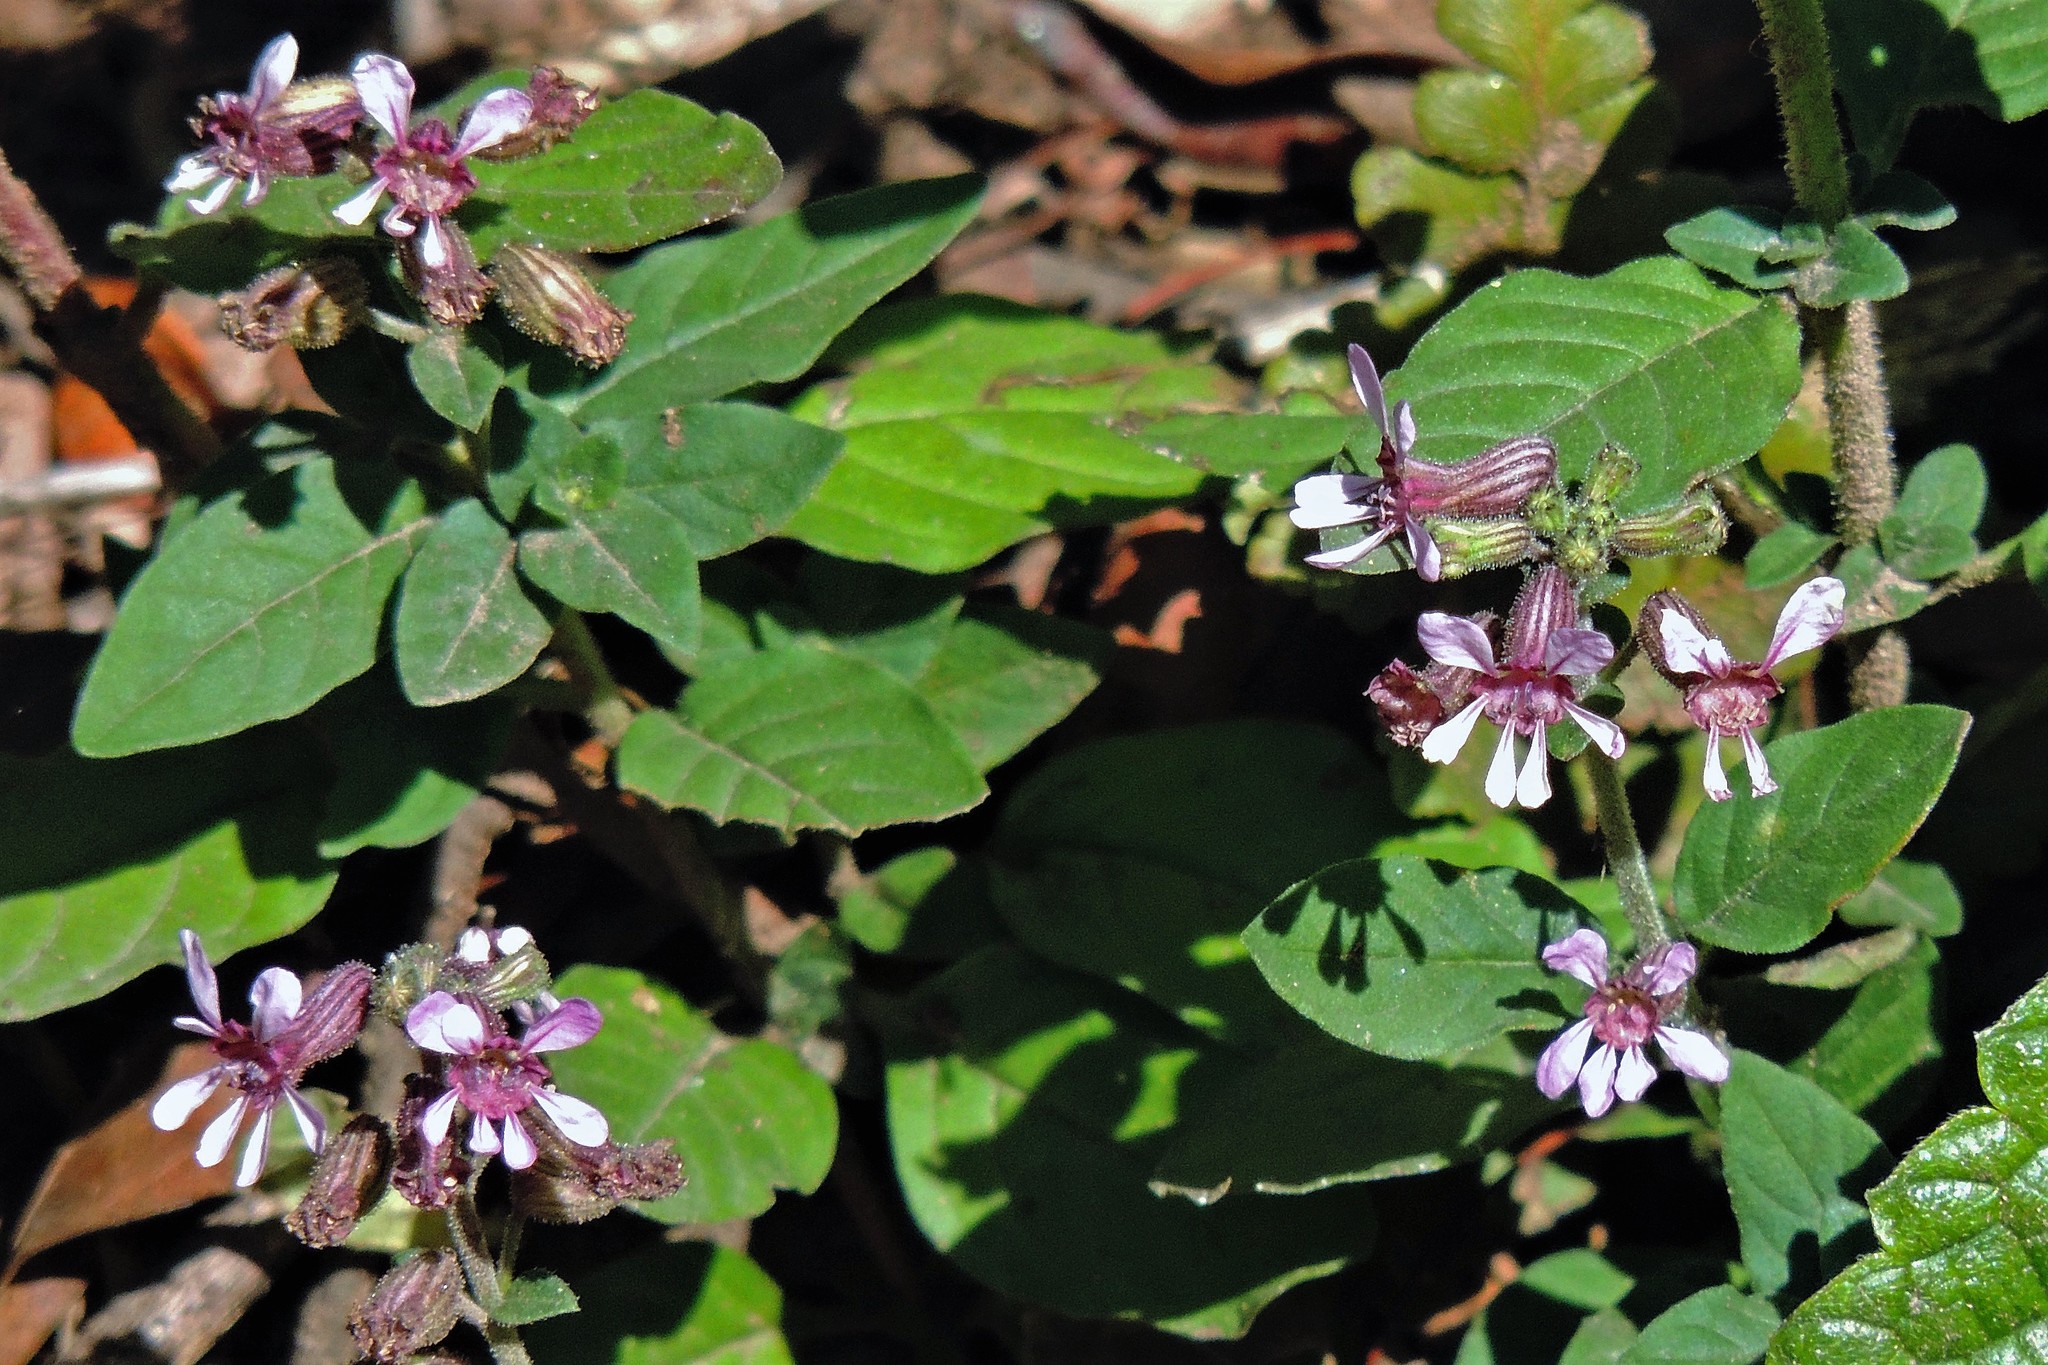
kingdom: Plantae
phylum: Tracheophyta
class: Magnoliopsida
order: Myrtales
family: Lythraceae
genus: Cuphea
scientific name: Cuphea racemosa
